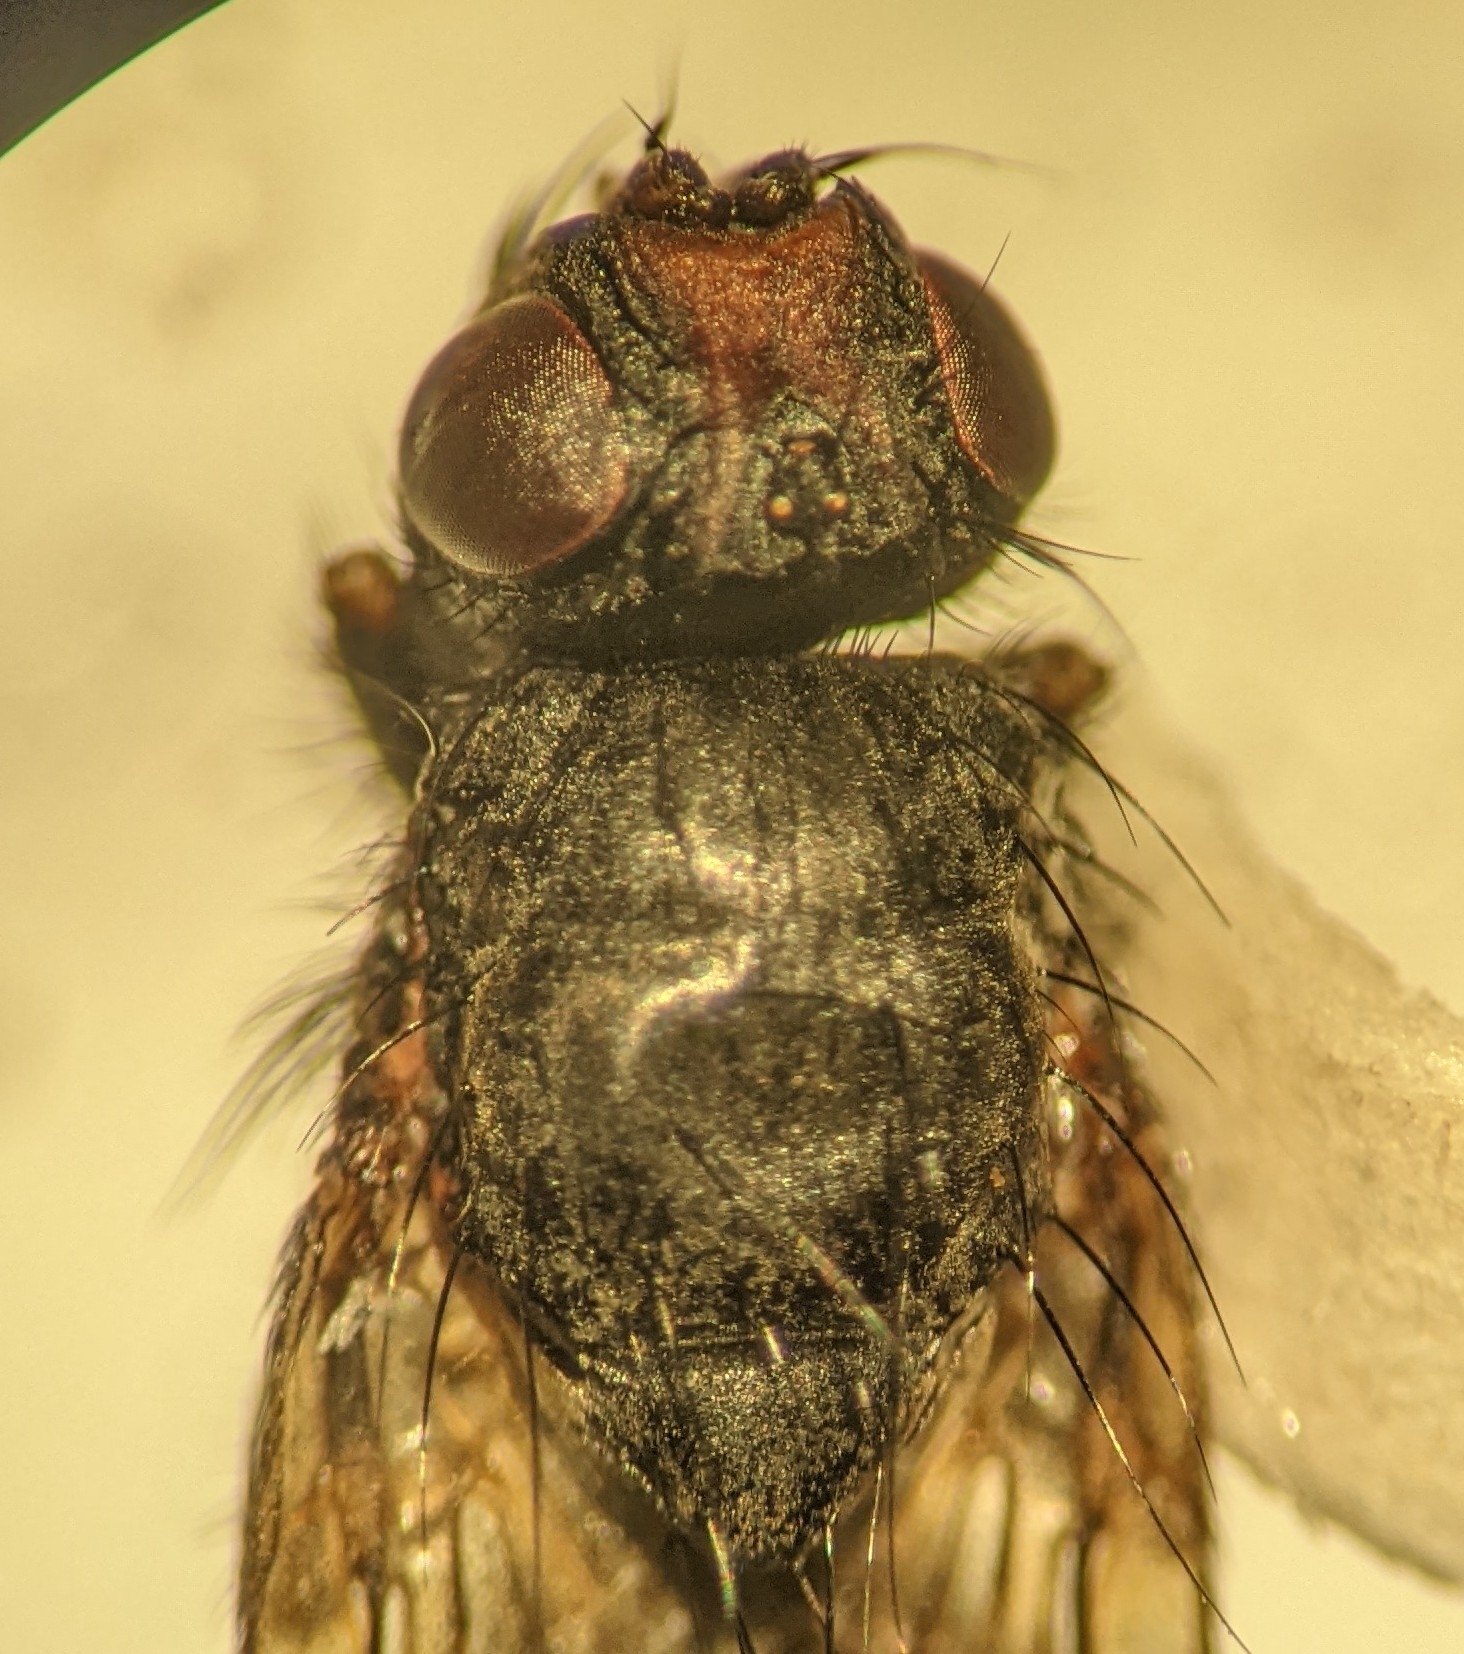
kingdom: Animalia
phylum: Arthropoda
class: Insecta
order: Diptera
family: Scathophagidae
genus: Bucephalina
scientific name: Bucephalina megacephala
